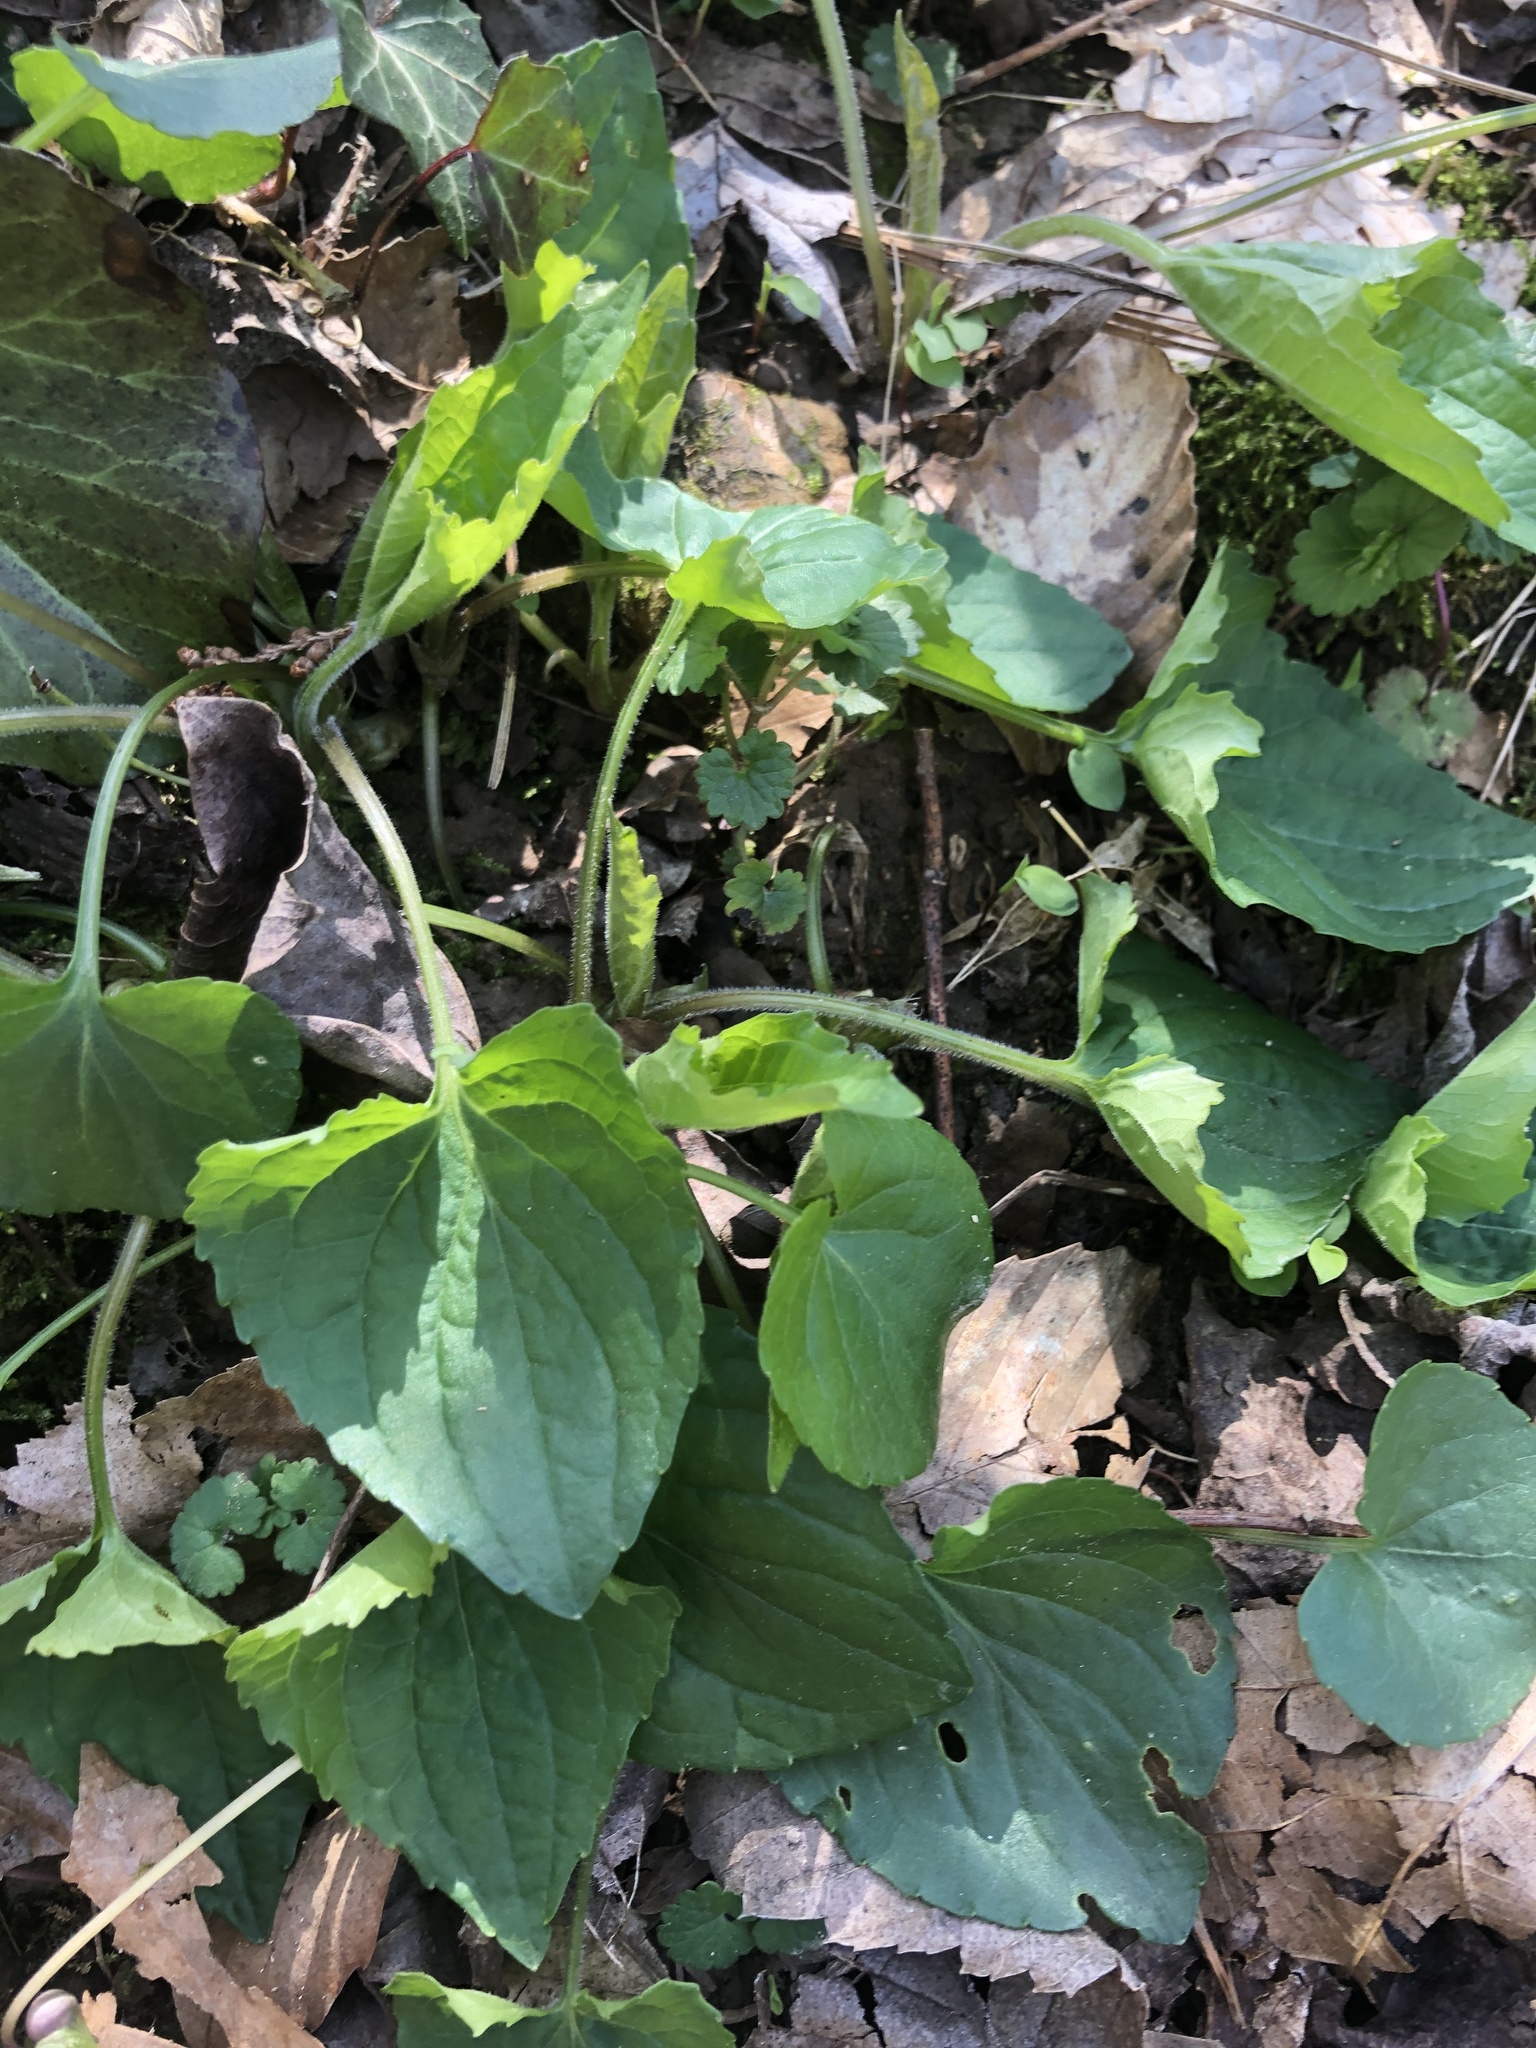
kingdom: Plantae
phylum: Tracheophyta
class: Magnoliopsida
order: Malpighiales
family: Violaceae
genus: Viola
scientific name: Viola sororia
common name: Dooryard violet
